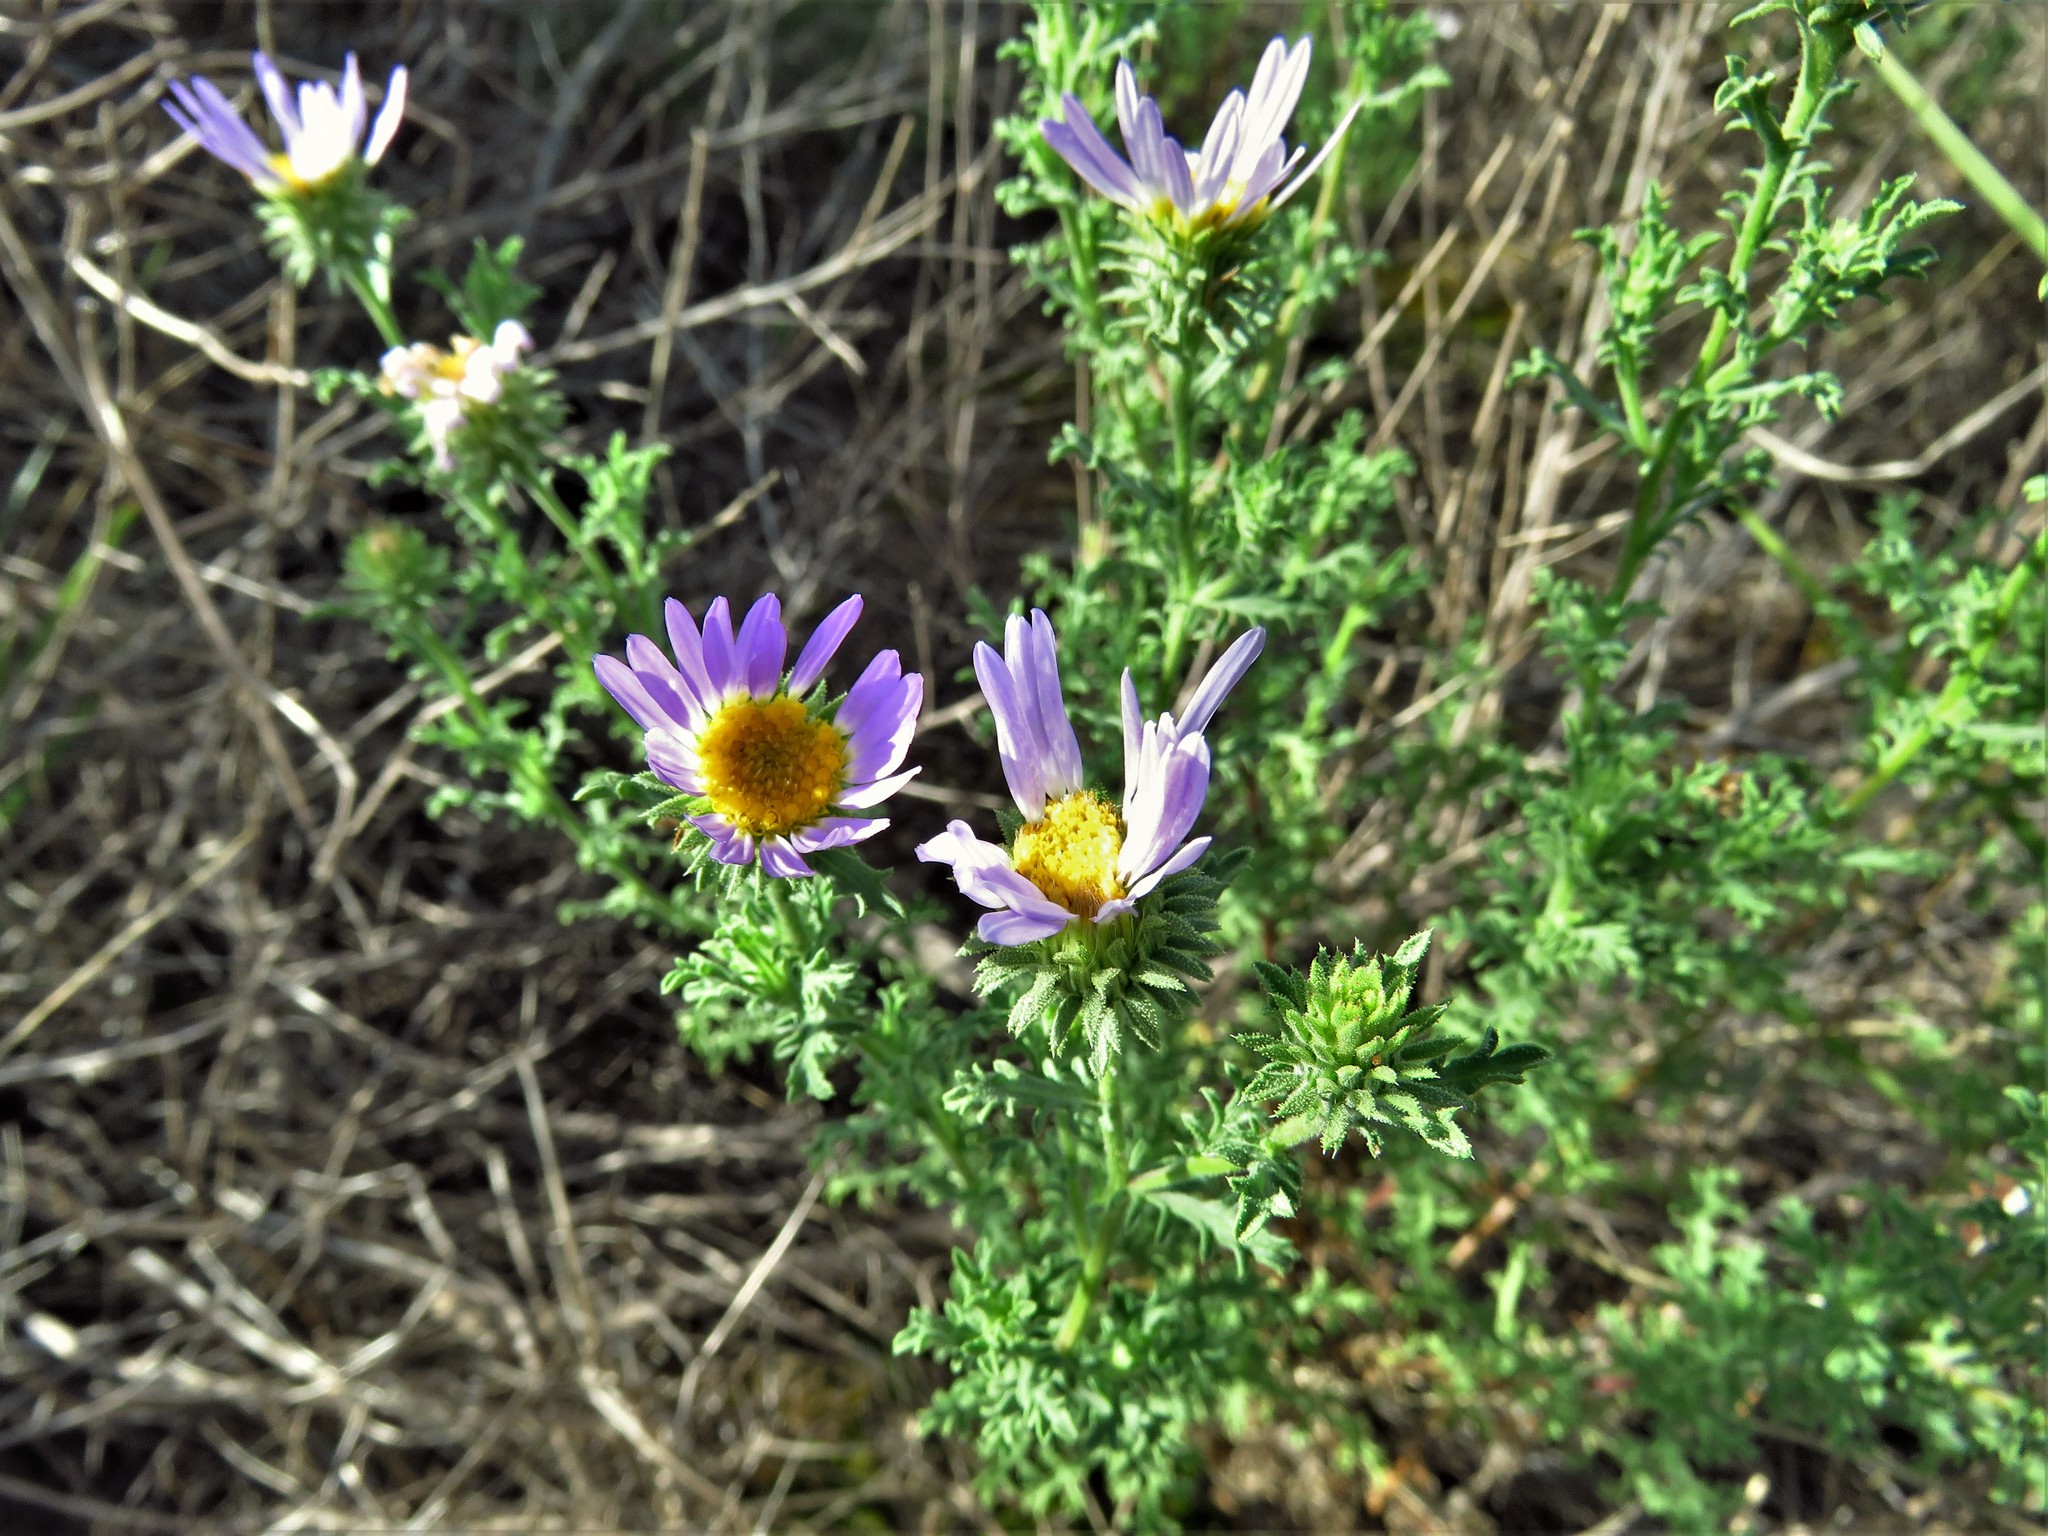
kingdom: Plantae
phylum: Tracheophyta
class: Magnoliopsida
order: Asterales
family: Asteraceae
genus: Machaeranthera
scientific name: Machaeranthera tanacetifolia
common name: Tansy-aster
